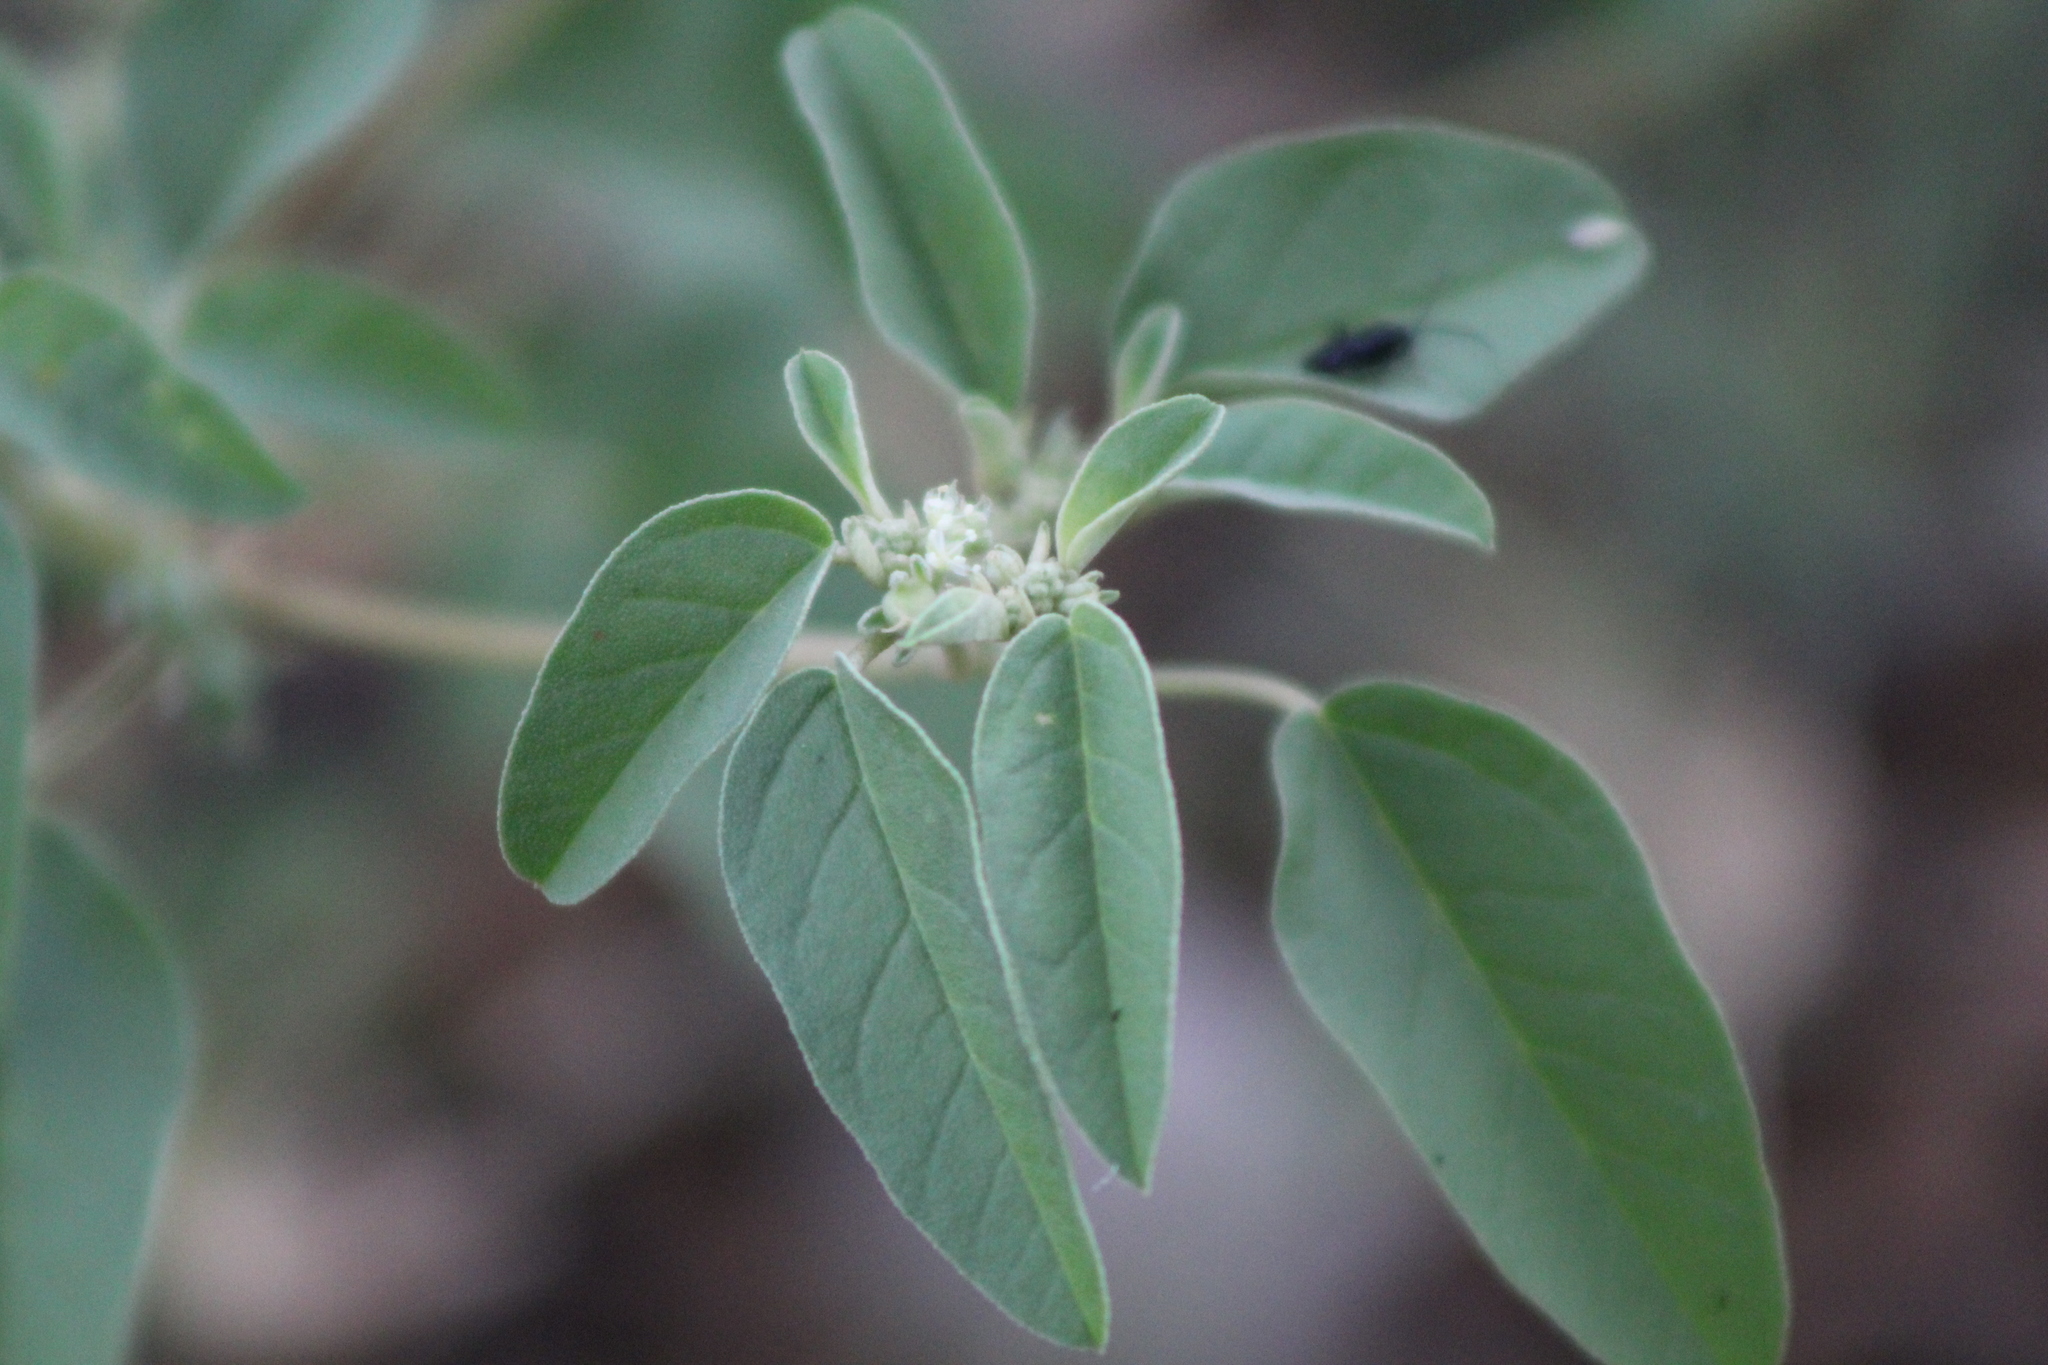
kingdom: Plantae
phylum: Tracheophyta
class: Magnoliopsida
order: Malpighiales
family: Euphorbiaceae
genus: Croton
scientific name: Croton monanthogynus
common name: One-seed croton
